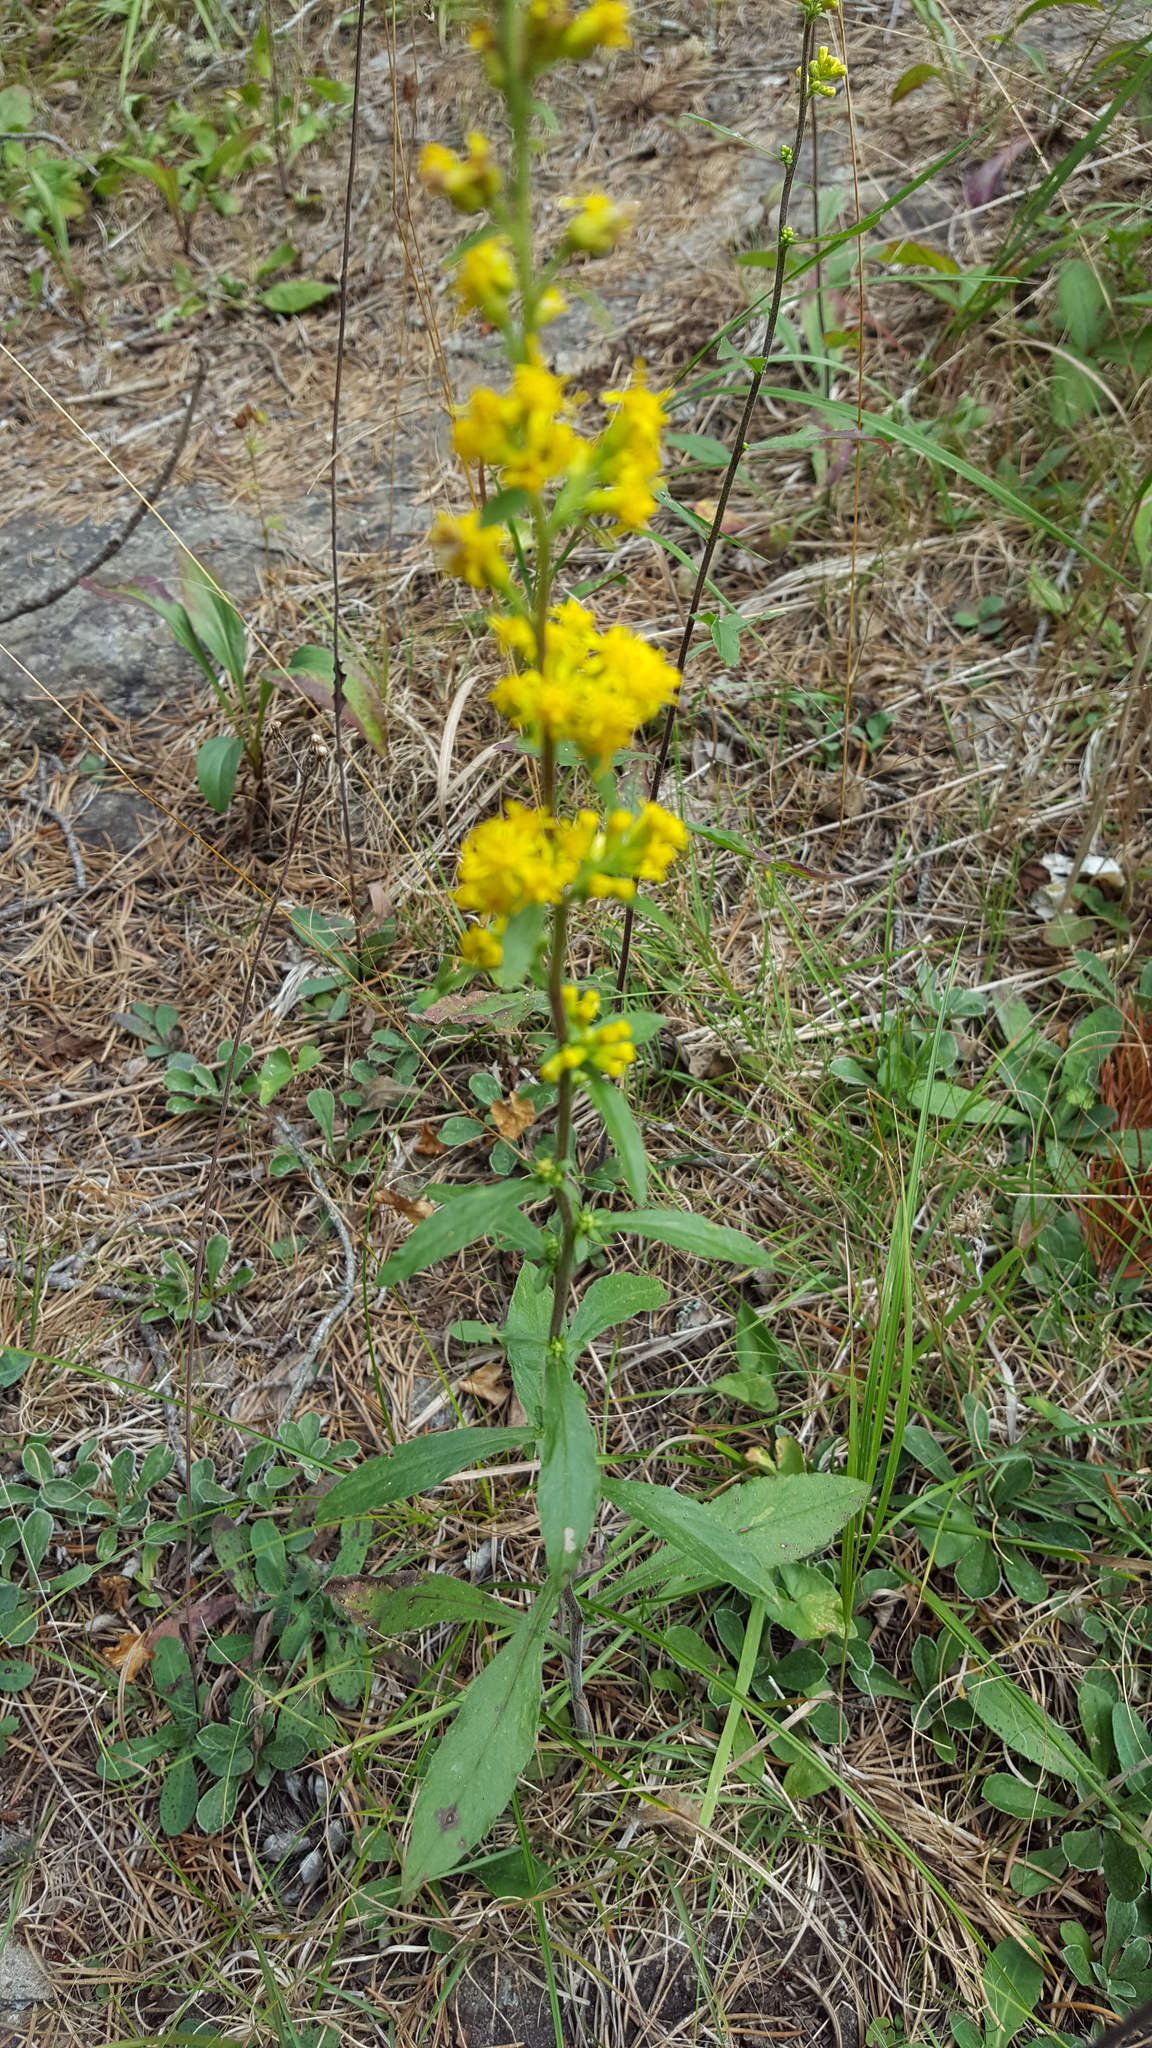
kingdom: Plantae
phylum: Tracheophyta
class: Magnoliopsida
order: Asterales
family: Asteraceae
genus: Solidago
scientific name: Solidago hispida
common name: Hairy goldenrod
